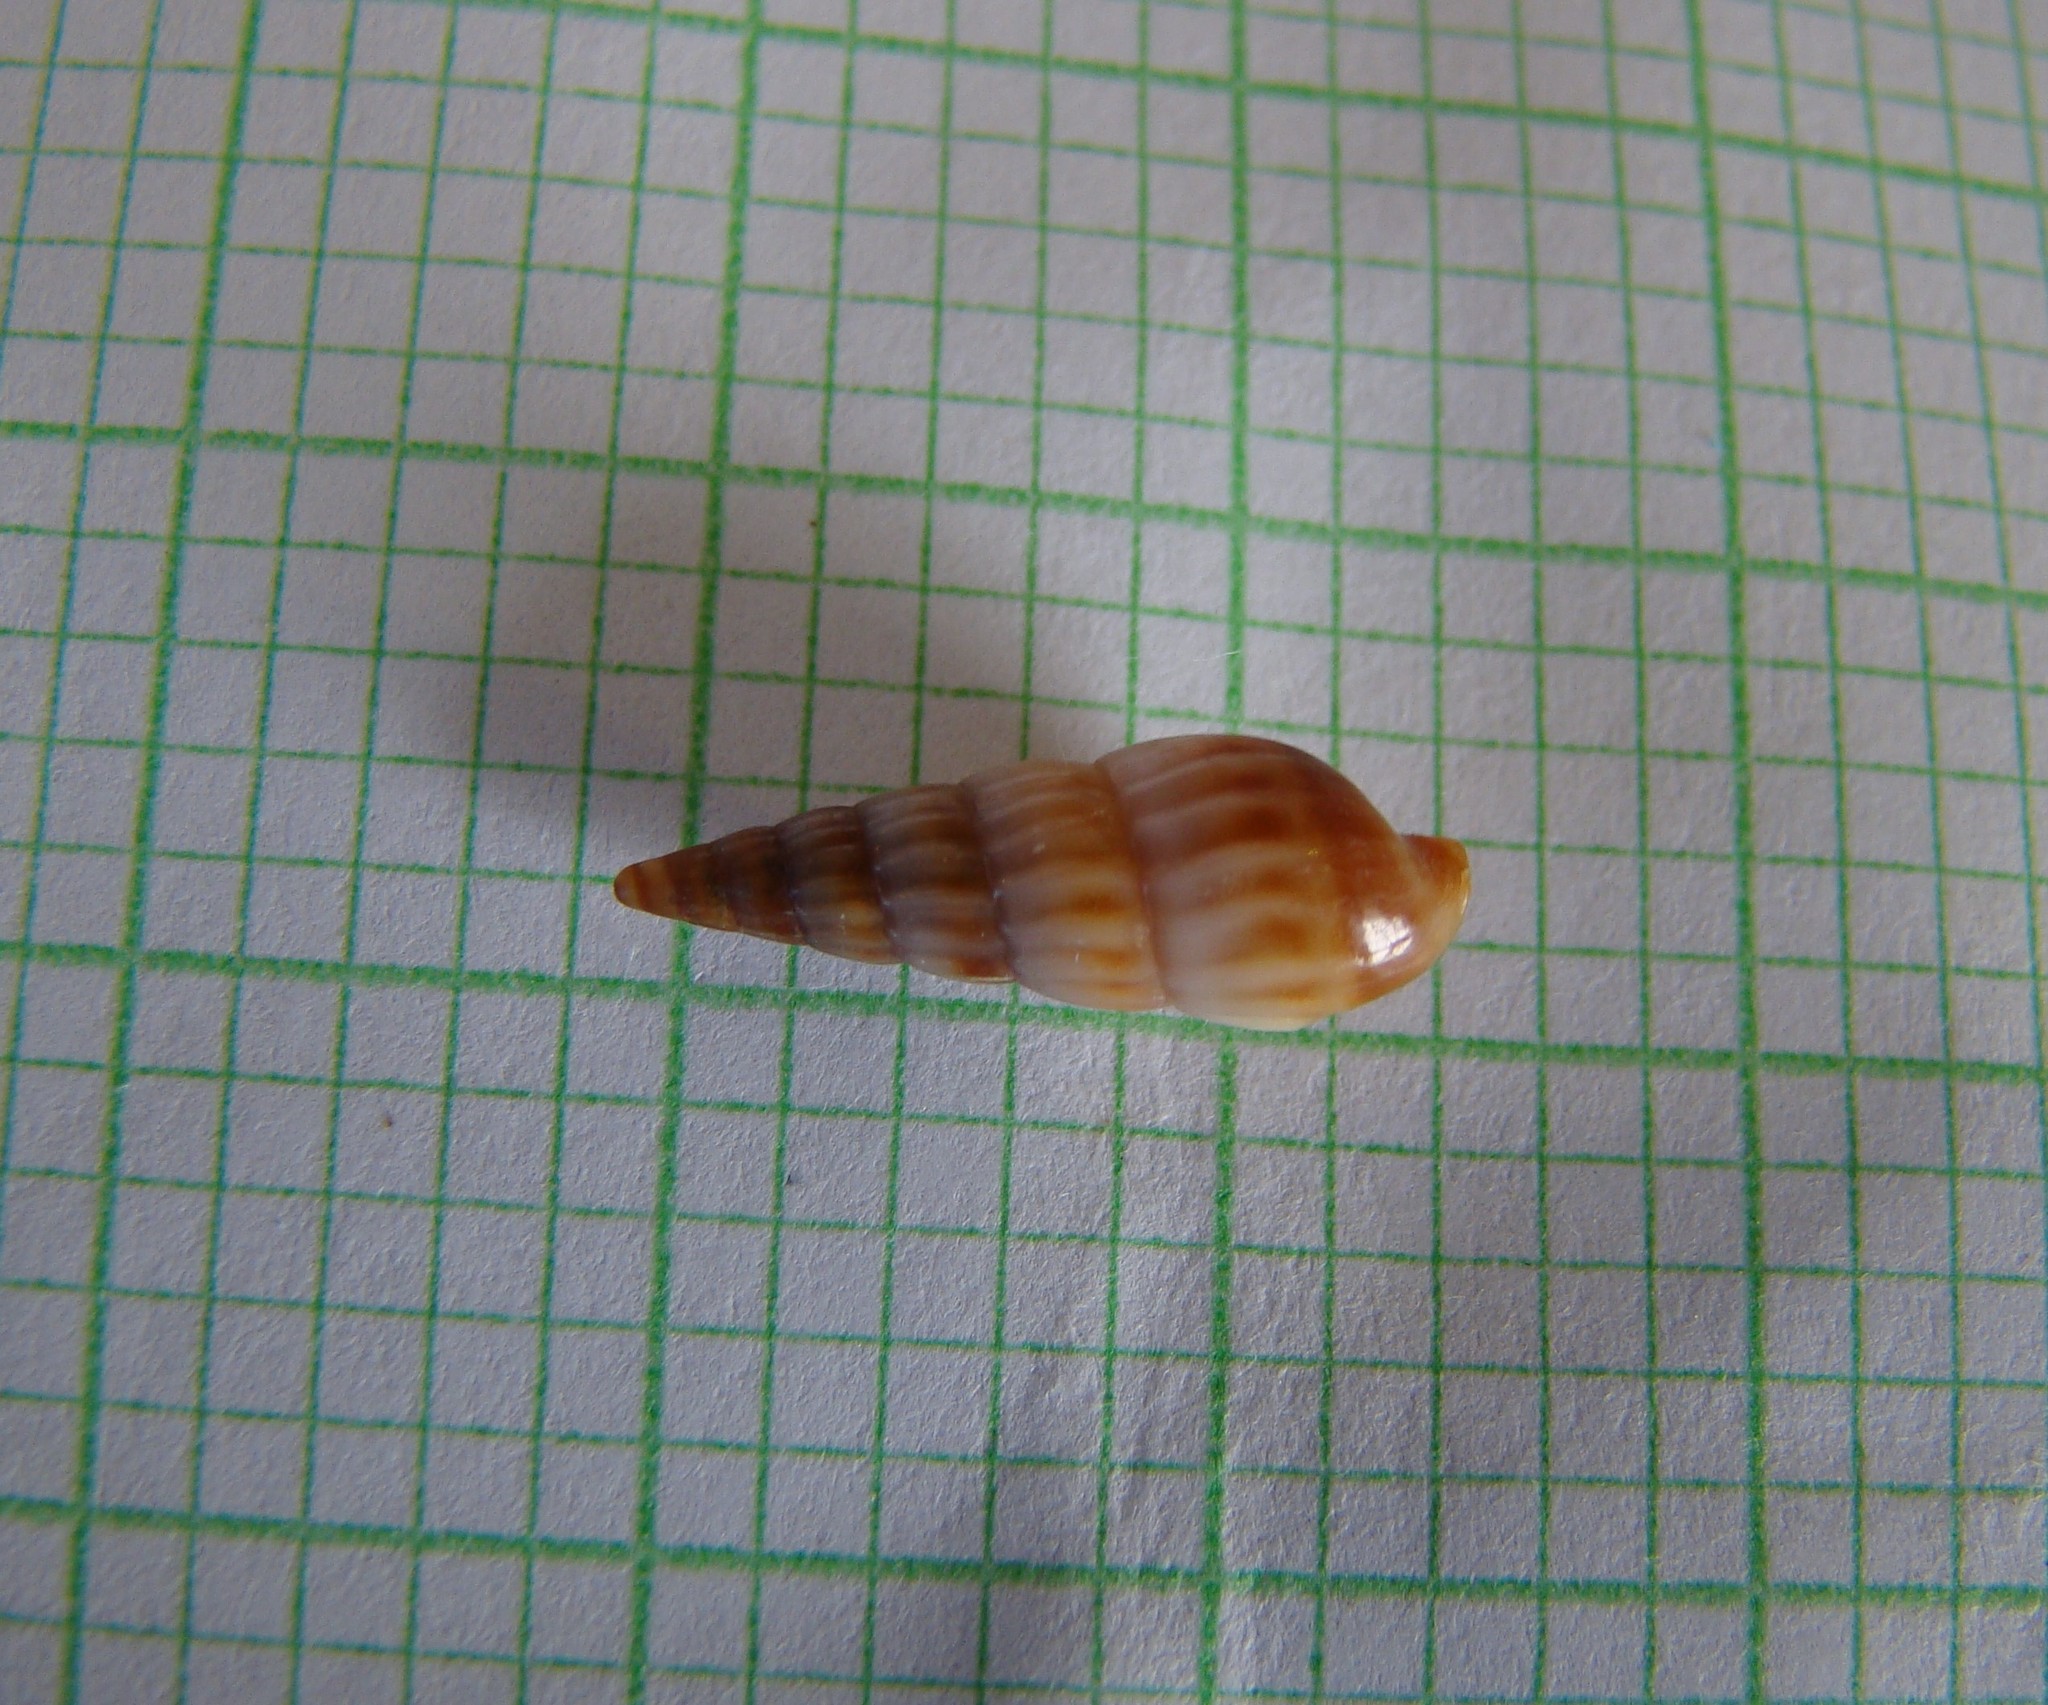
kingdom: Animalia
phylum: Mollusca
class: Gastropoda
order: Neogastropoda
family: Terebridae
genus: Duplicaria
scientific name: Duplicaria tristis
